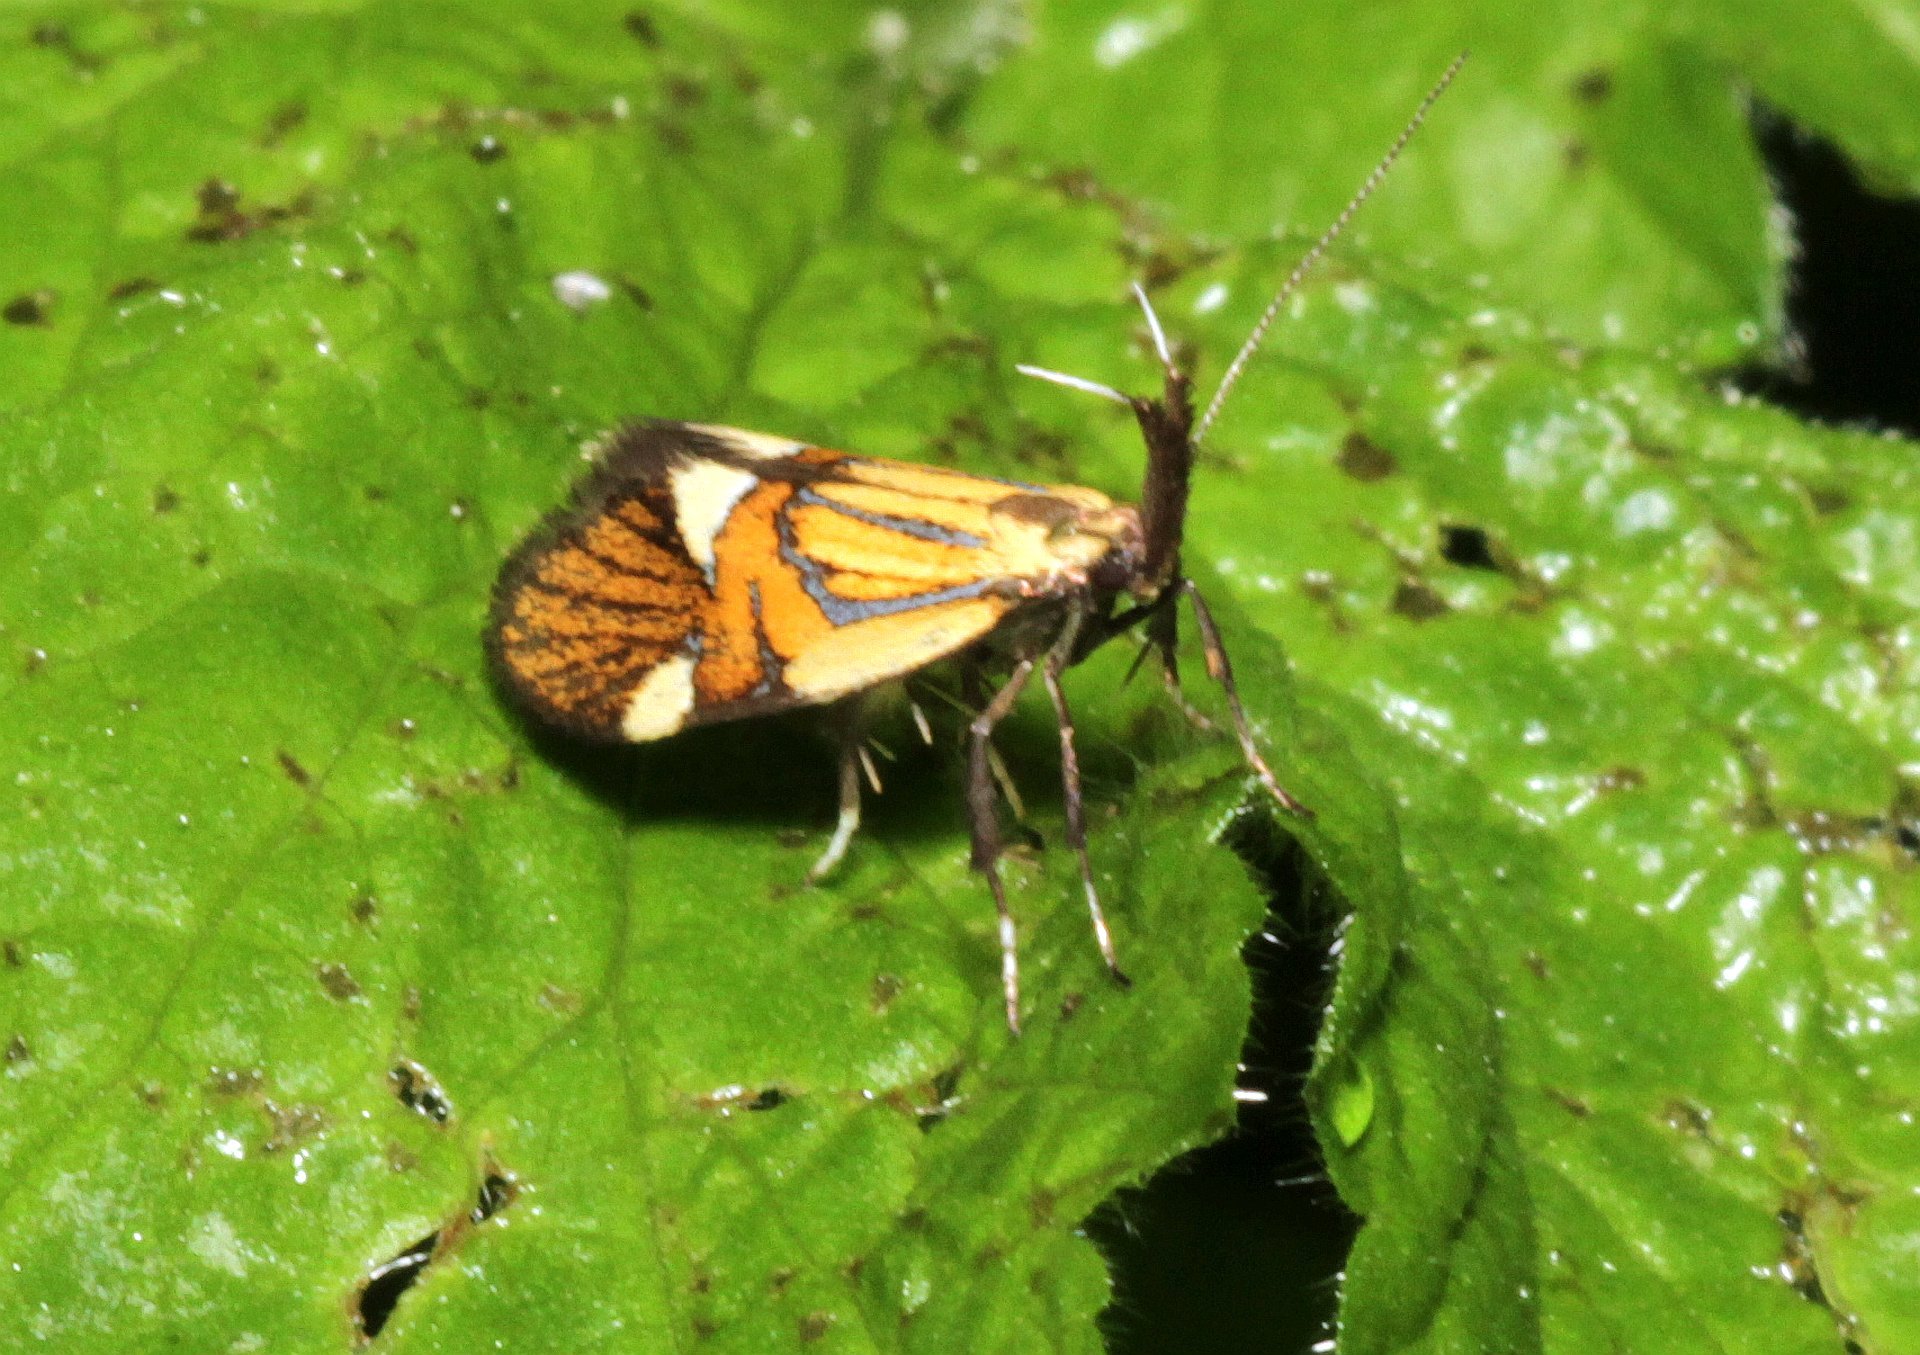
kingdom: Animalia
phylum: Arthropoda
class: Insecta
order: Lepidoptera
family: Oecophoridae
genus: Oecophora
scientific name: Oecophora Alabonia geoffrella
